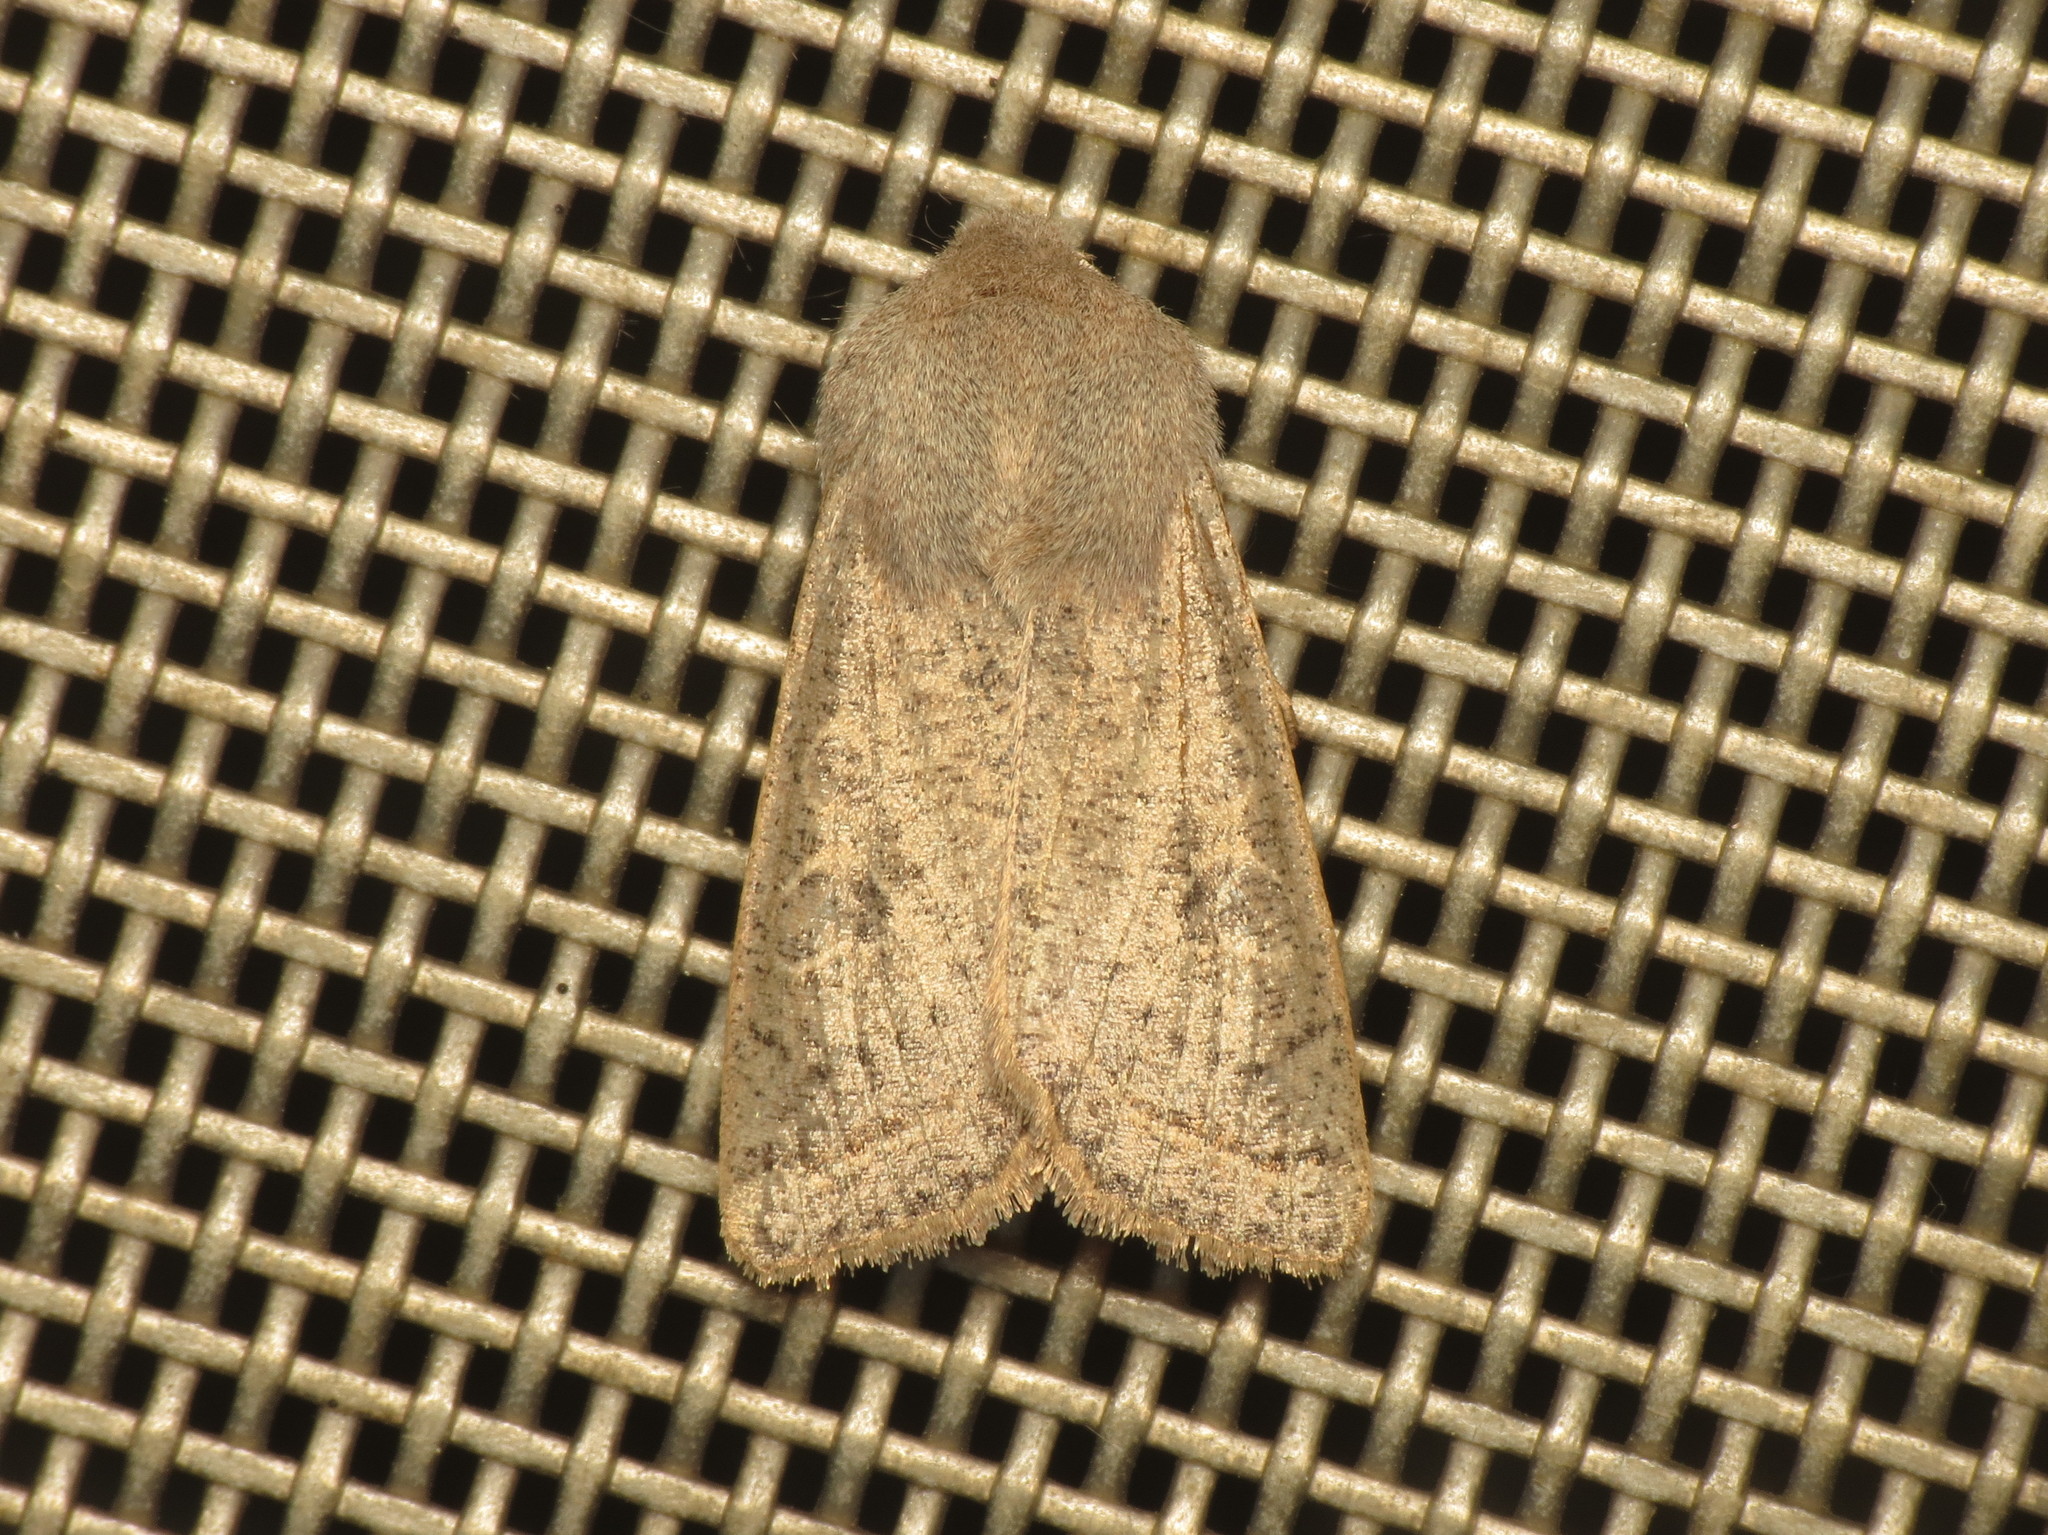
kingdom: Animalia
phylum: Arthropoda
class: Insecta
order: Lepidoptera
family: Noctuidae
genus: Orthosia
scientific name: Orthosia gracilis
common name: Powdered quaker
